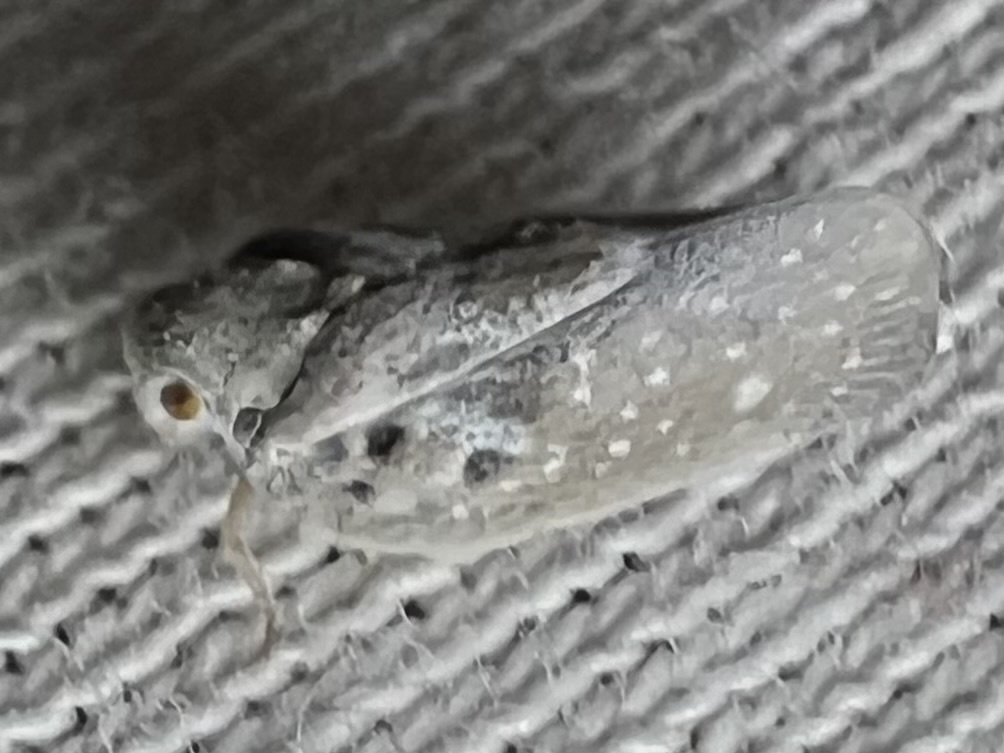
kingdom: Animalia
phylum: Arthropoda
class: Insecta
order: Hemiptera
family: Flatidae
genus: Metcalfa
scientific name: Metcalfa pruinosa
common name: Citrus flatid planthopper
